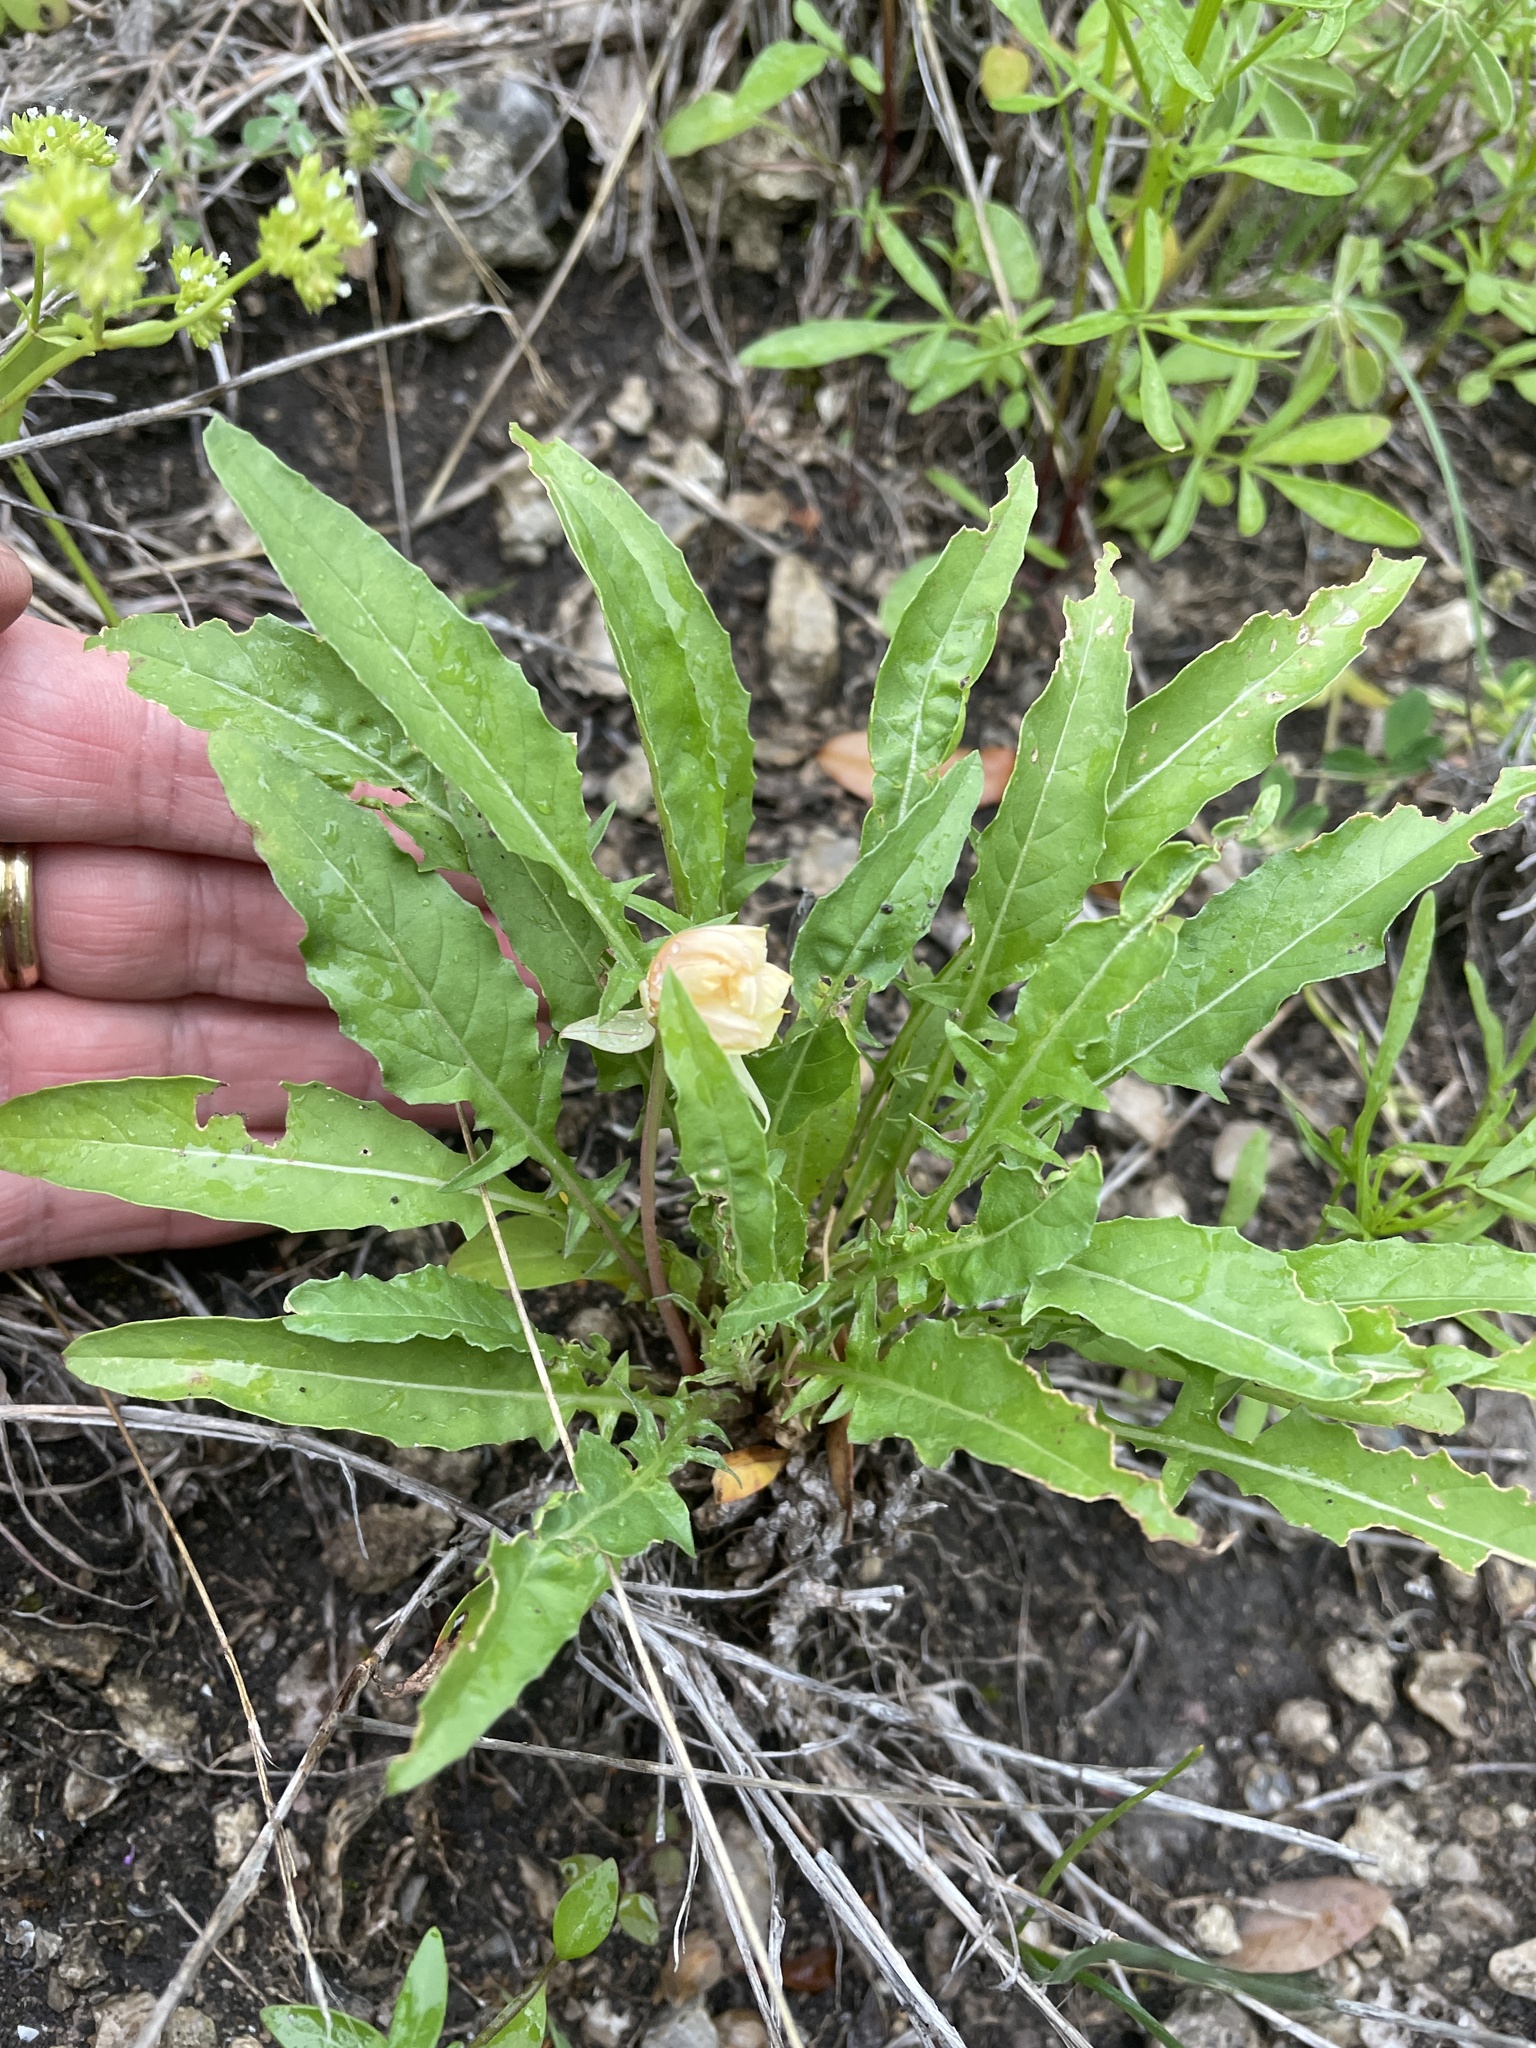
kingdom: Plantae
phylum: Tracheophyta
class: Magnoliopsida
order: Myrtales
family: Onagraceae
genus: Oenothera
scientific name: Oenothera triloba
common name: Sessile evening-primrose
